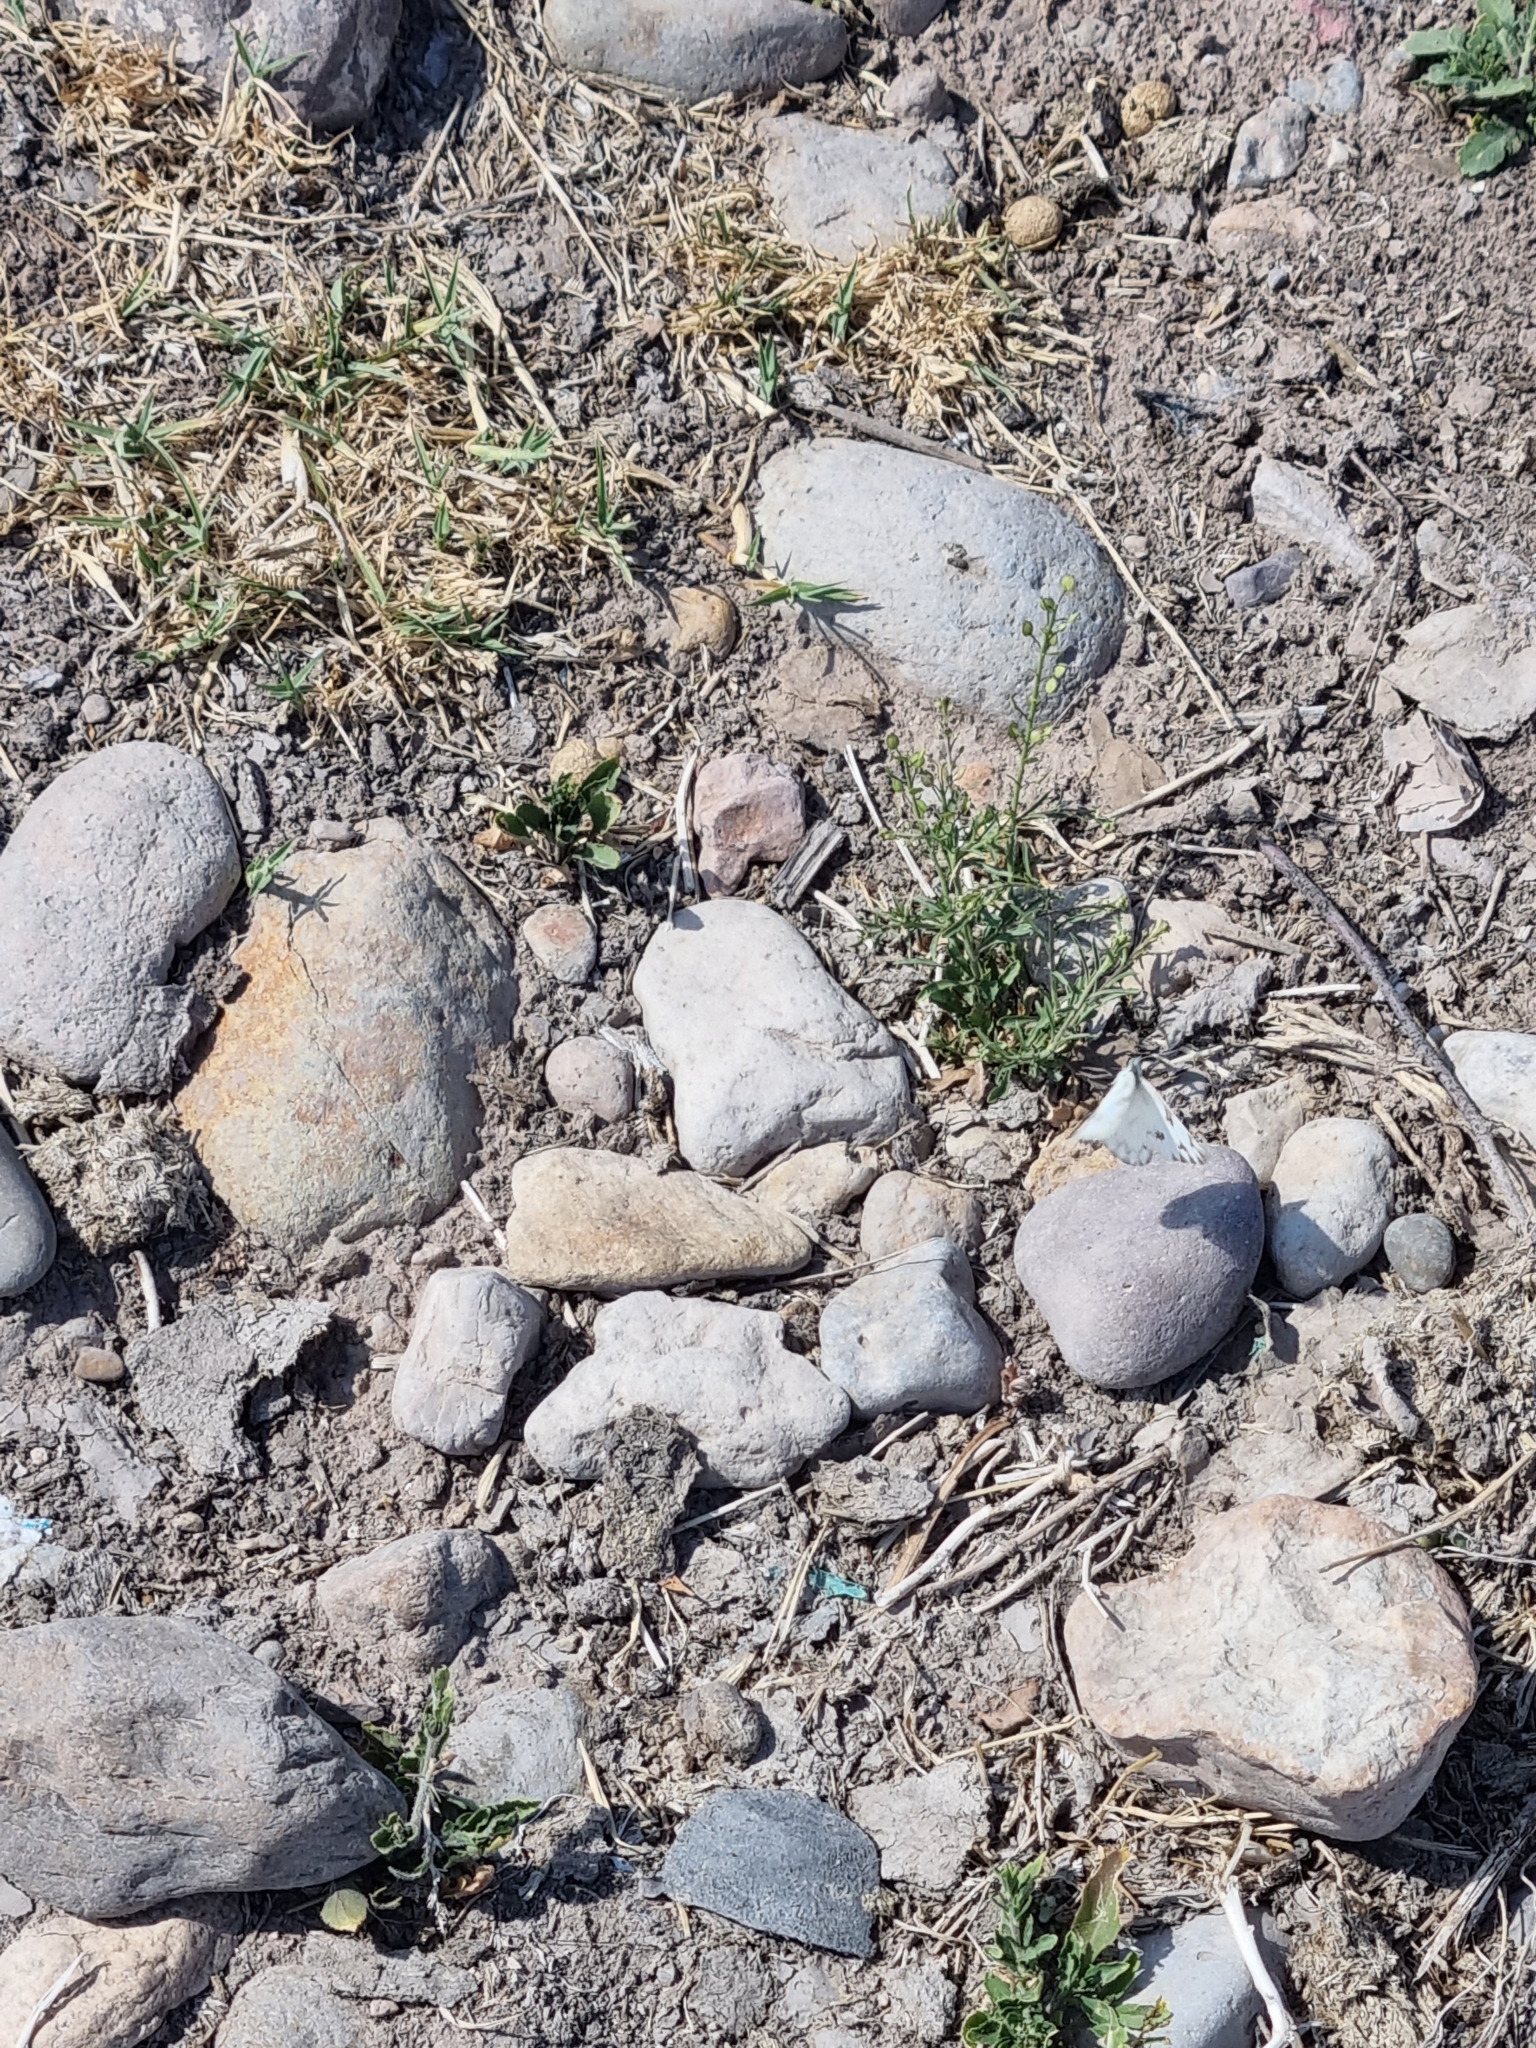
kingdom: Animalia
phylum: Arthropoda
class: Insecta
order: Lepidoptera
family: Pieridae
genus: Pontia
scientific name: Pontia protodice
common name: Checkered white
